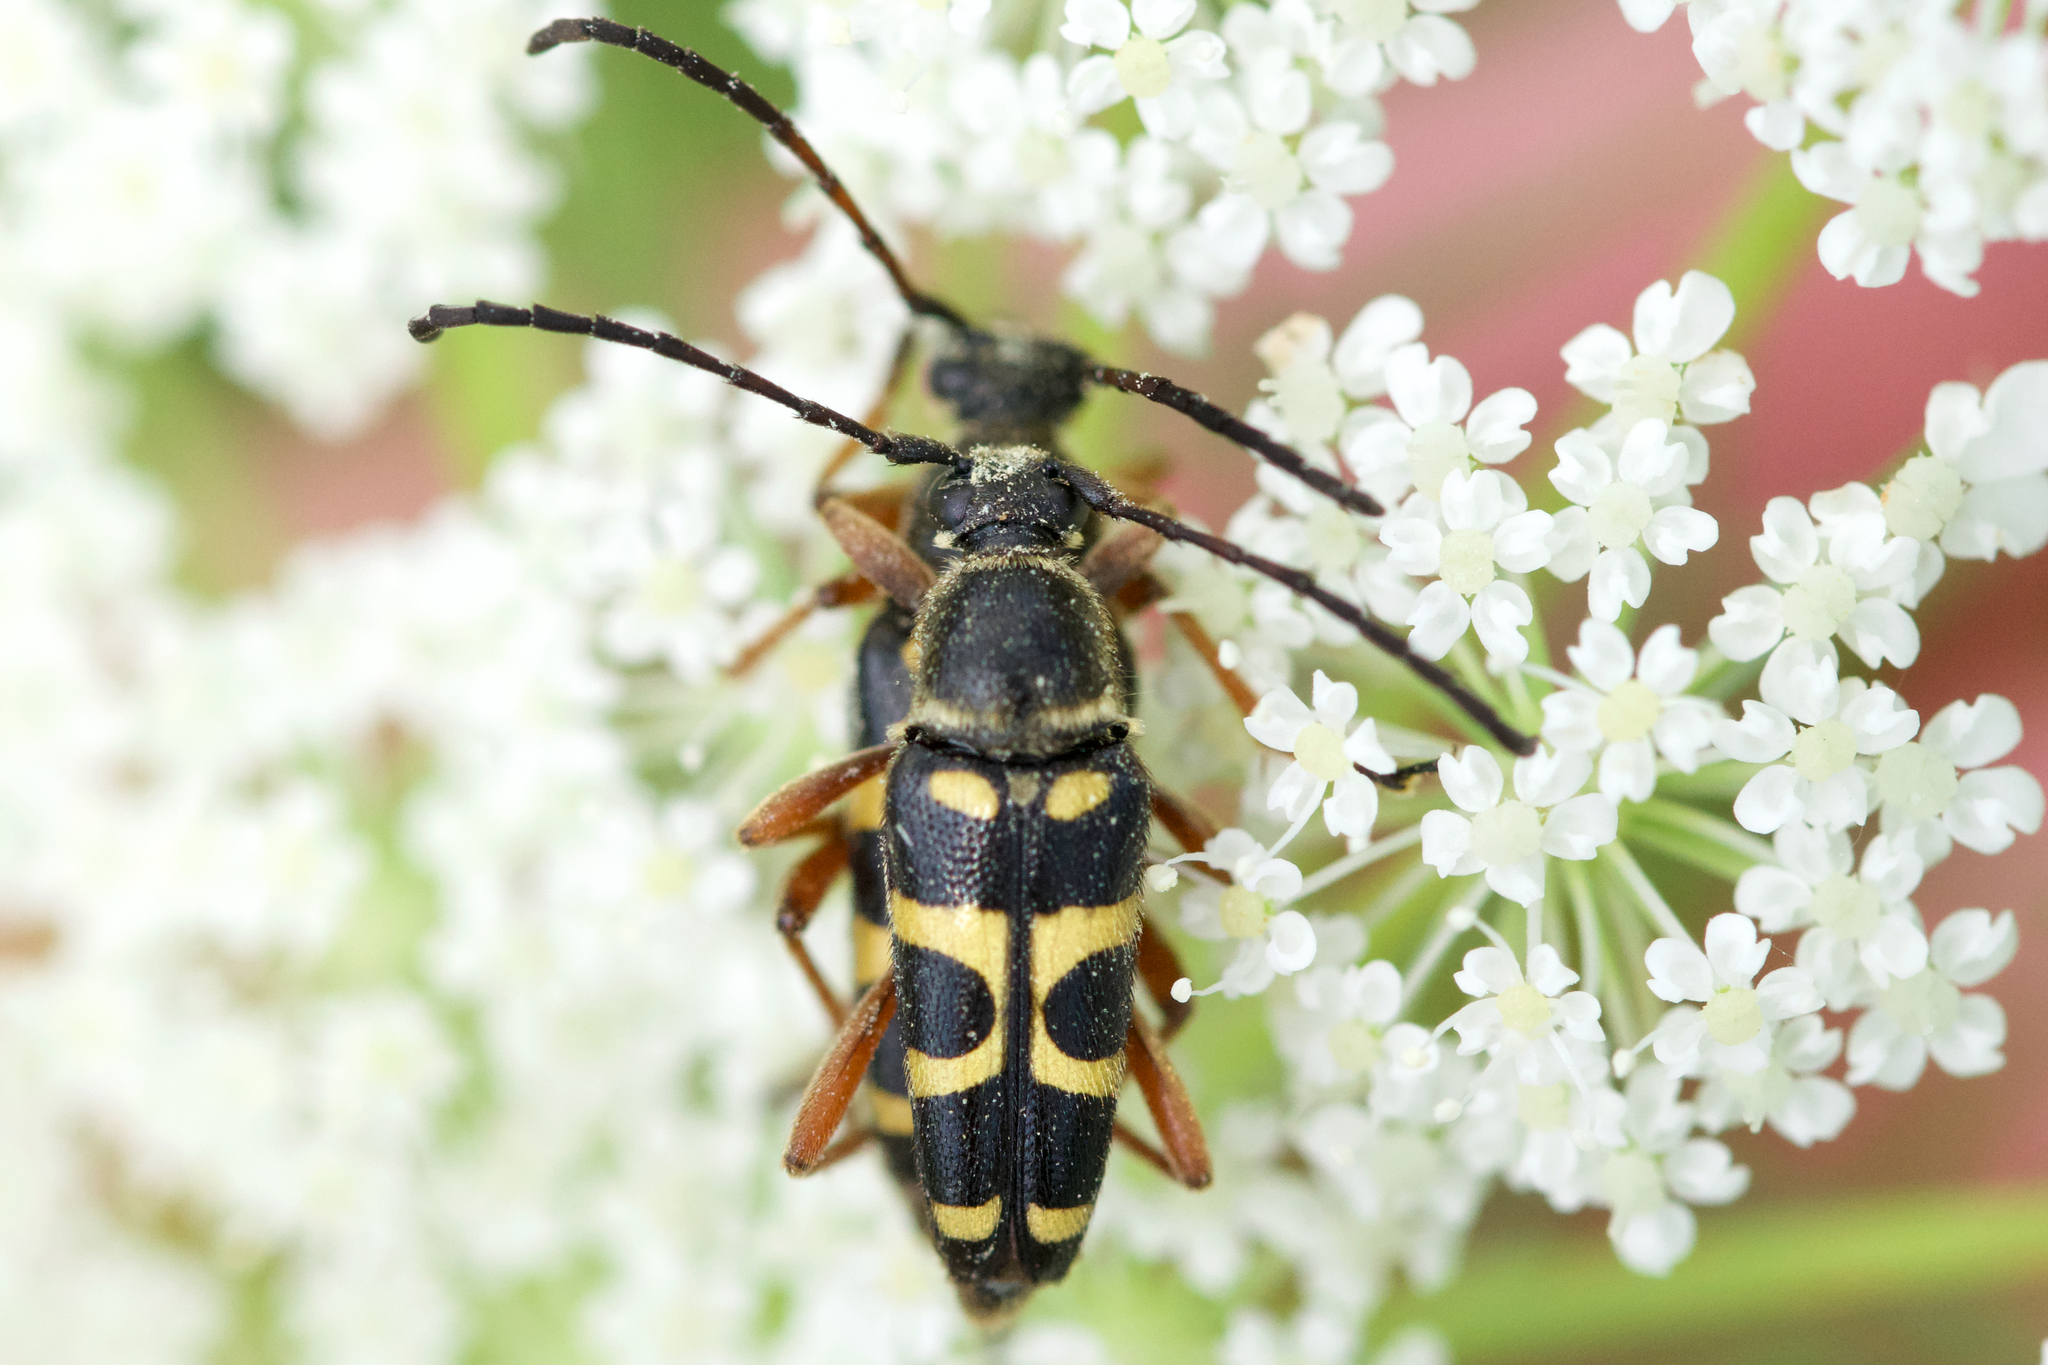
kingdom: Animalia
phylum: Arthropoda
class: Insecta
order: Coleoptera
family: Cerambycidae
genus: Typocerus
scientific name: Typocerus sparsus
